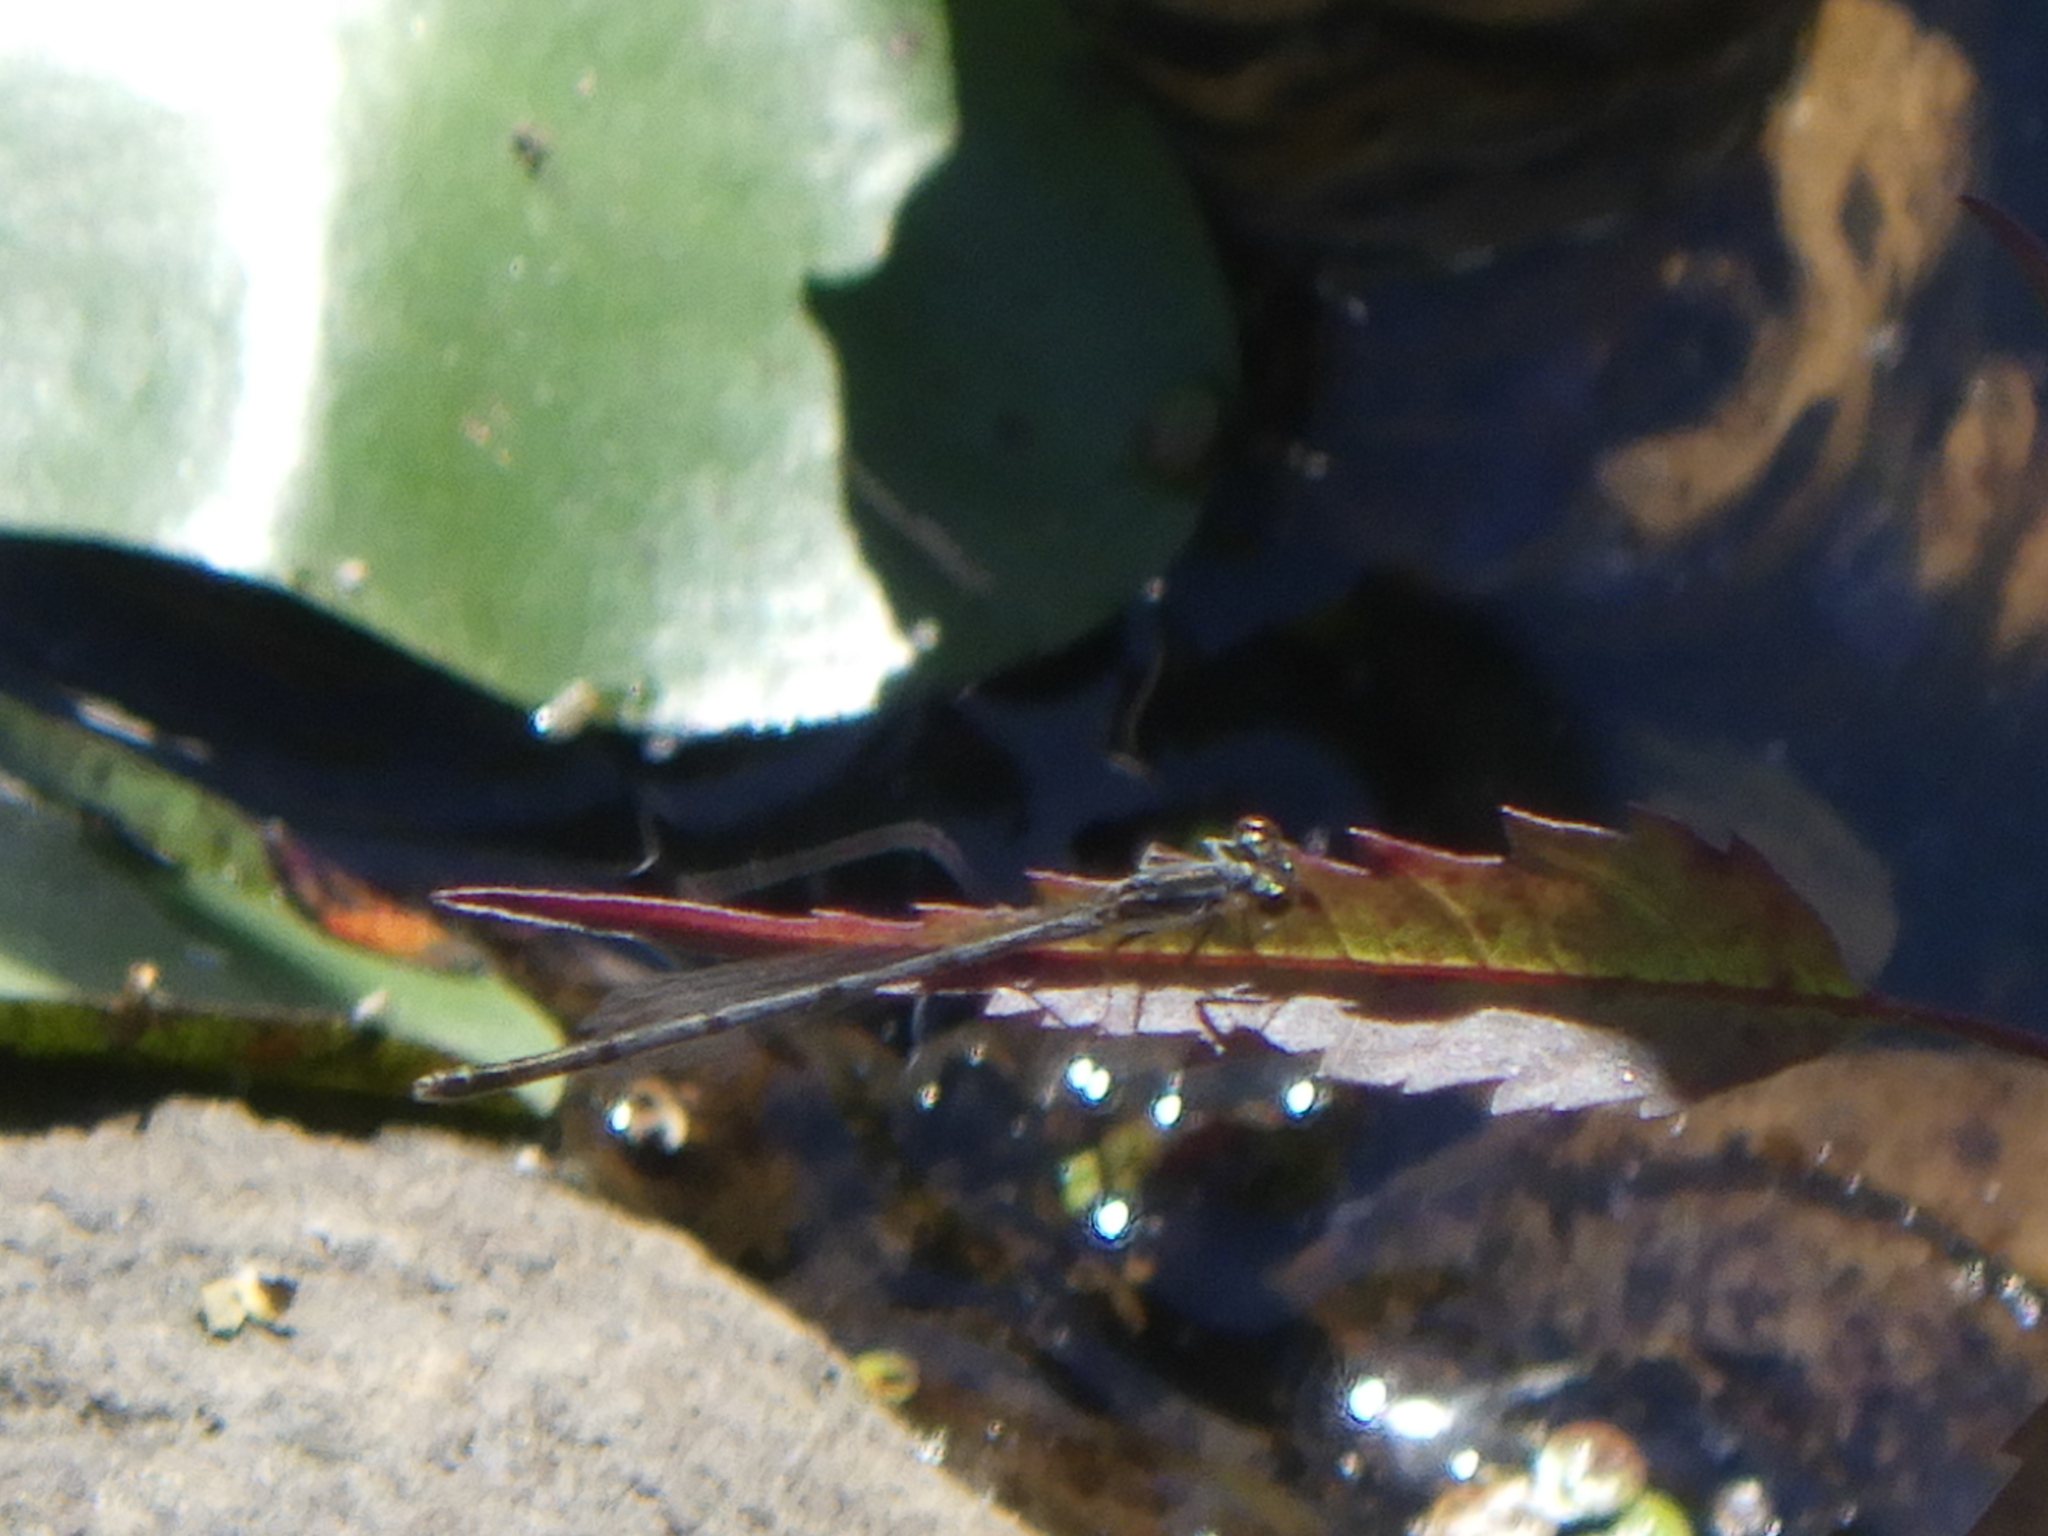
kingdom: Animalia
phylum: Arthropoda
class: Insecta
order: Odonata
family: Coenagrionidae
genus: Ischnura
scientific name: Ischnura posita
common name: Fragile forktail
